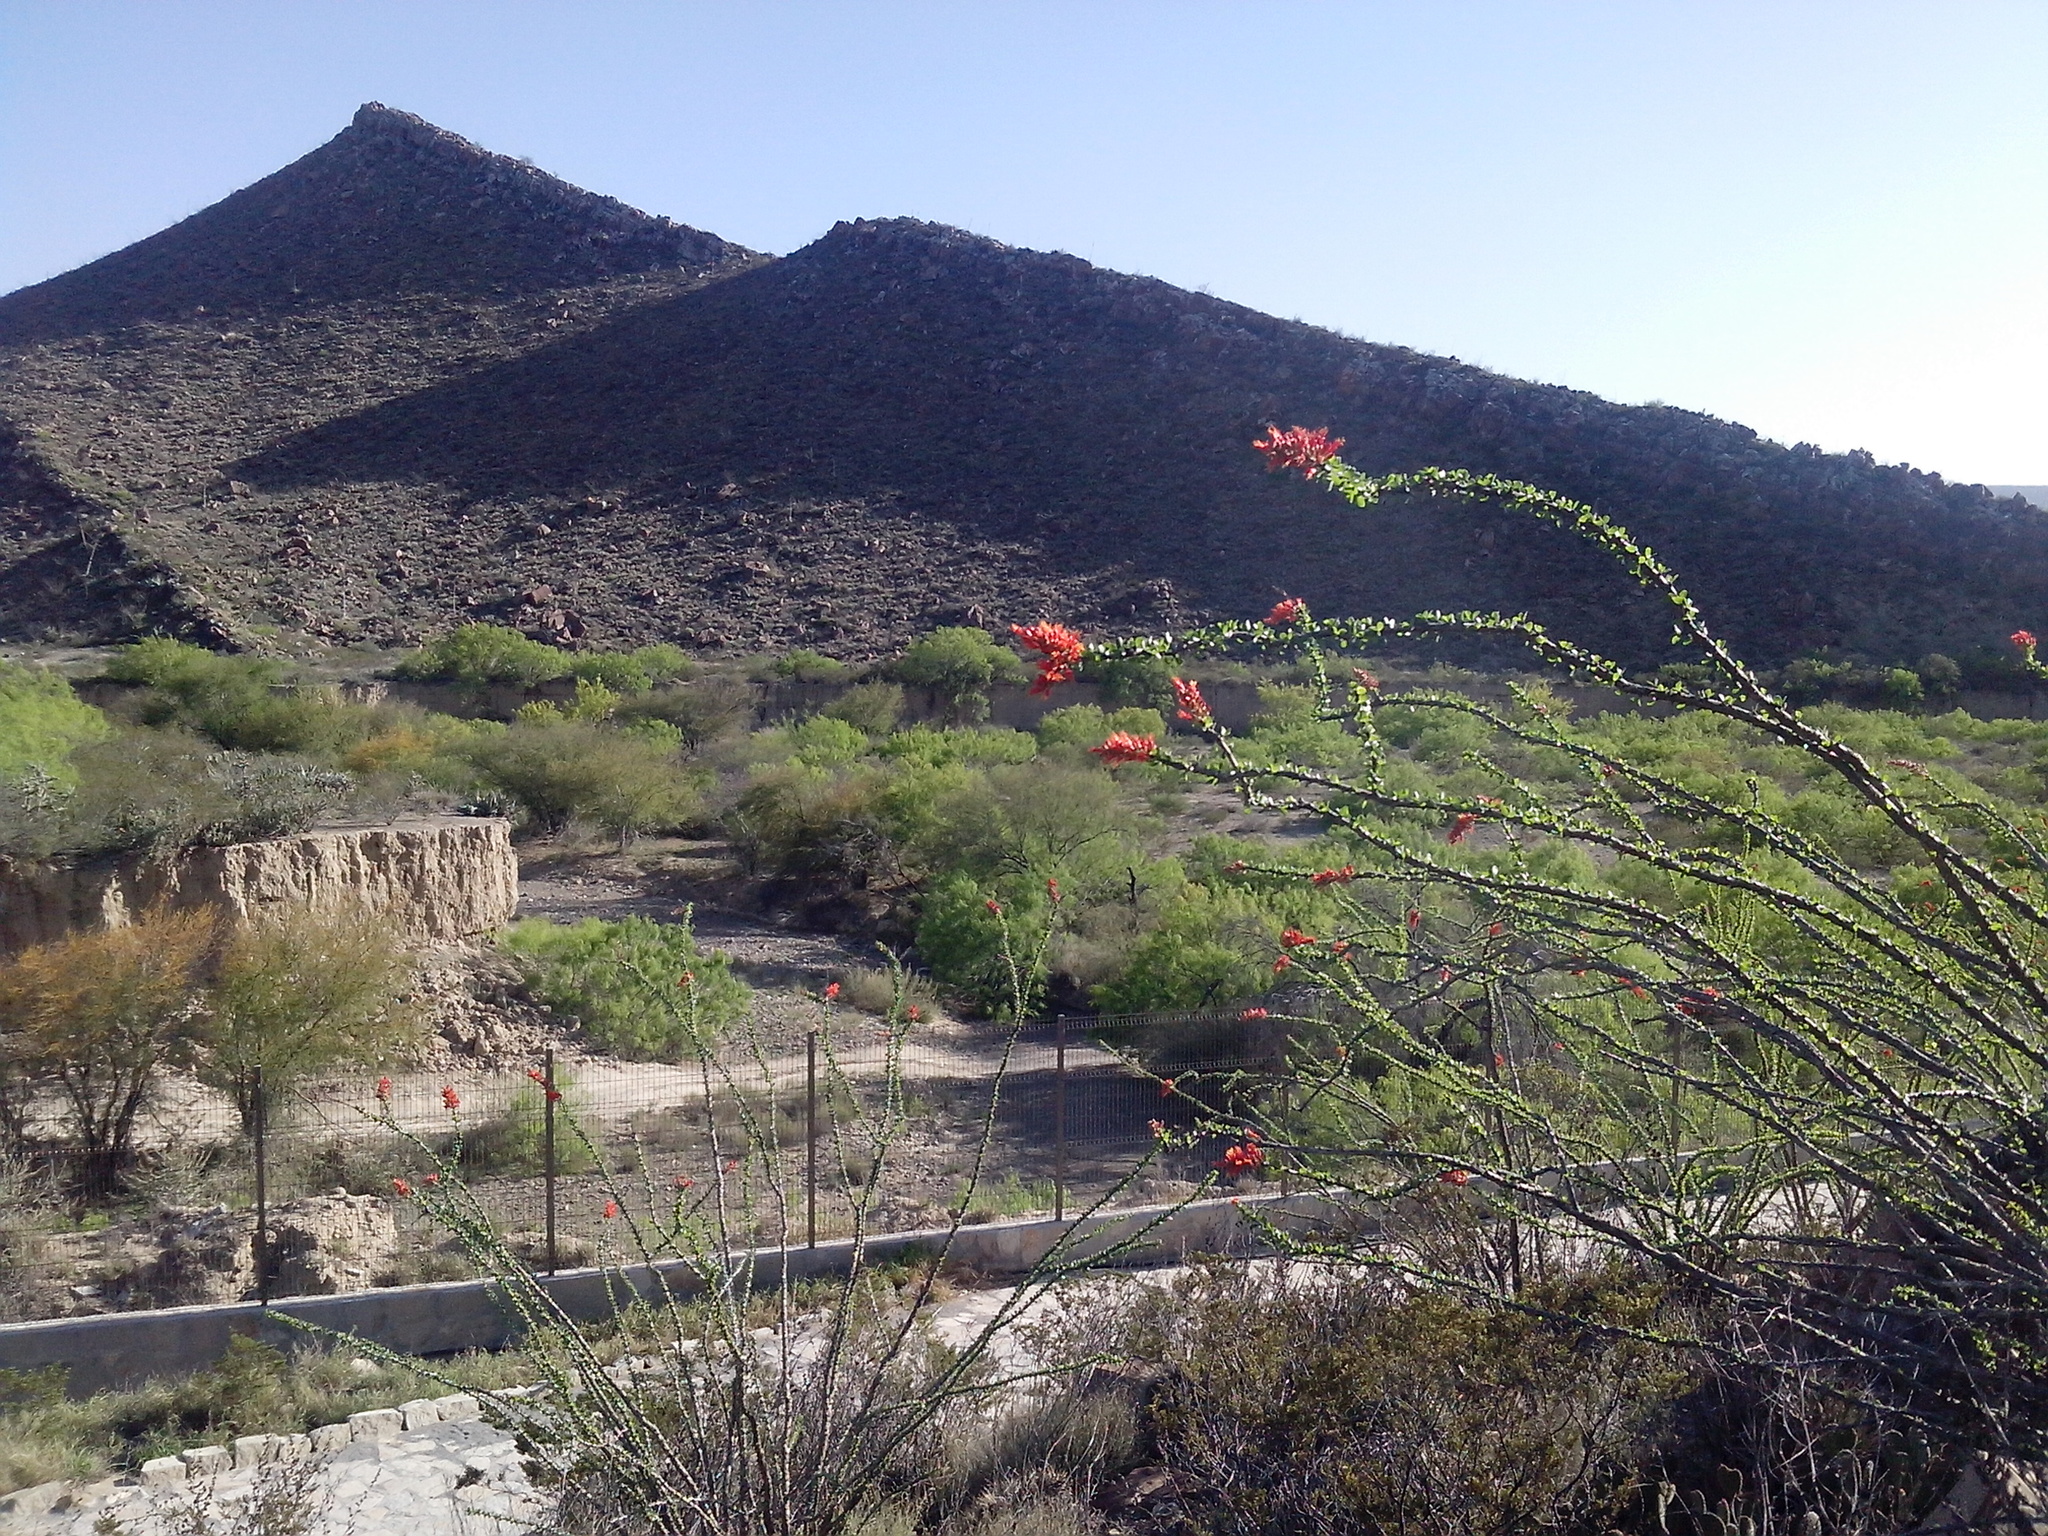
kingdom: Plantae
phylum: Tracheophyta
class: Magnoliopsida
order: Ericales
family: Fouquieriaceae
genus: Fouquieria
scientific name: Fouquieria splendens
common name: Vine-cactus
